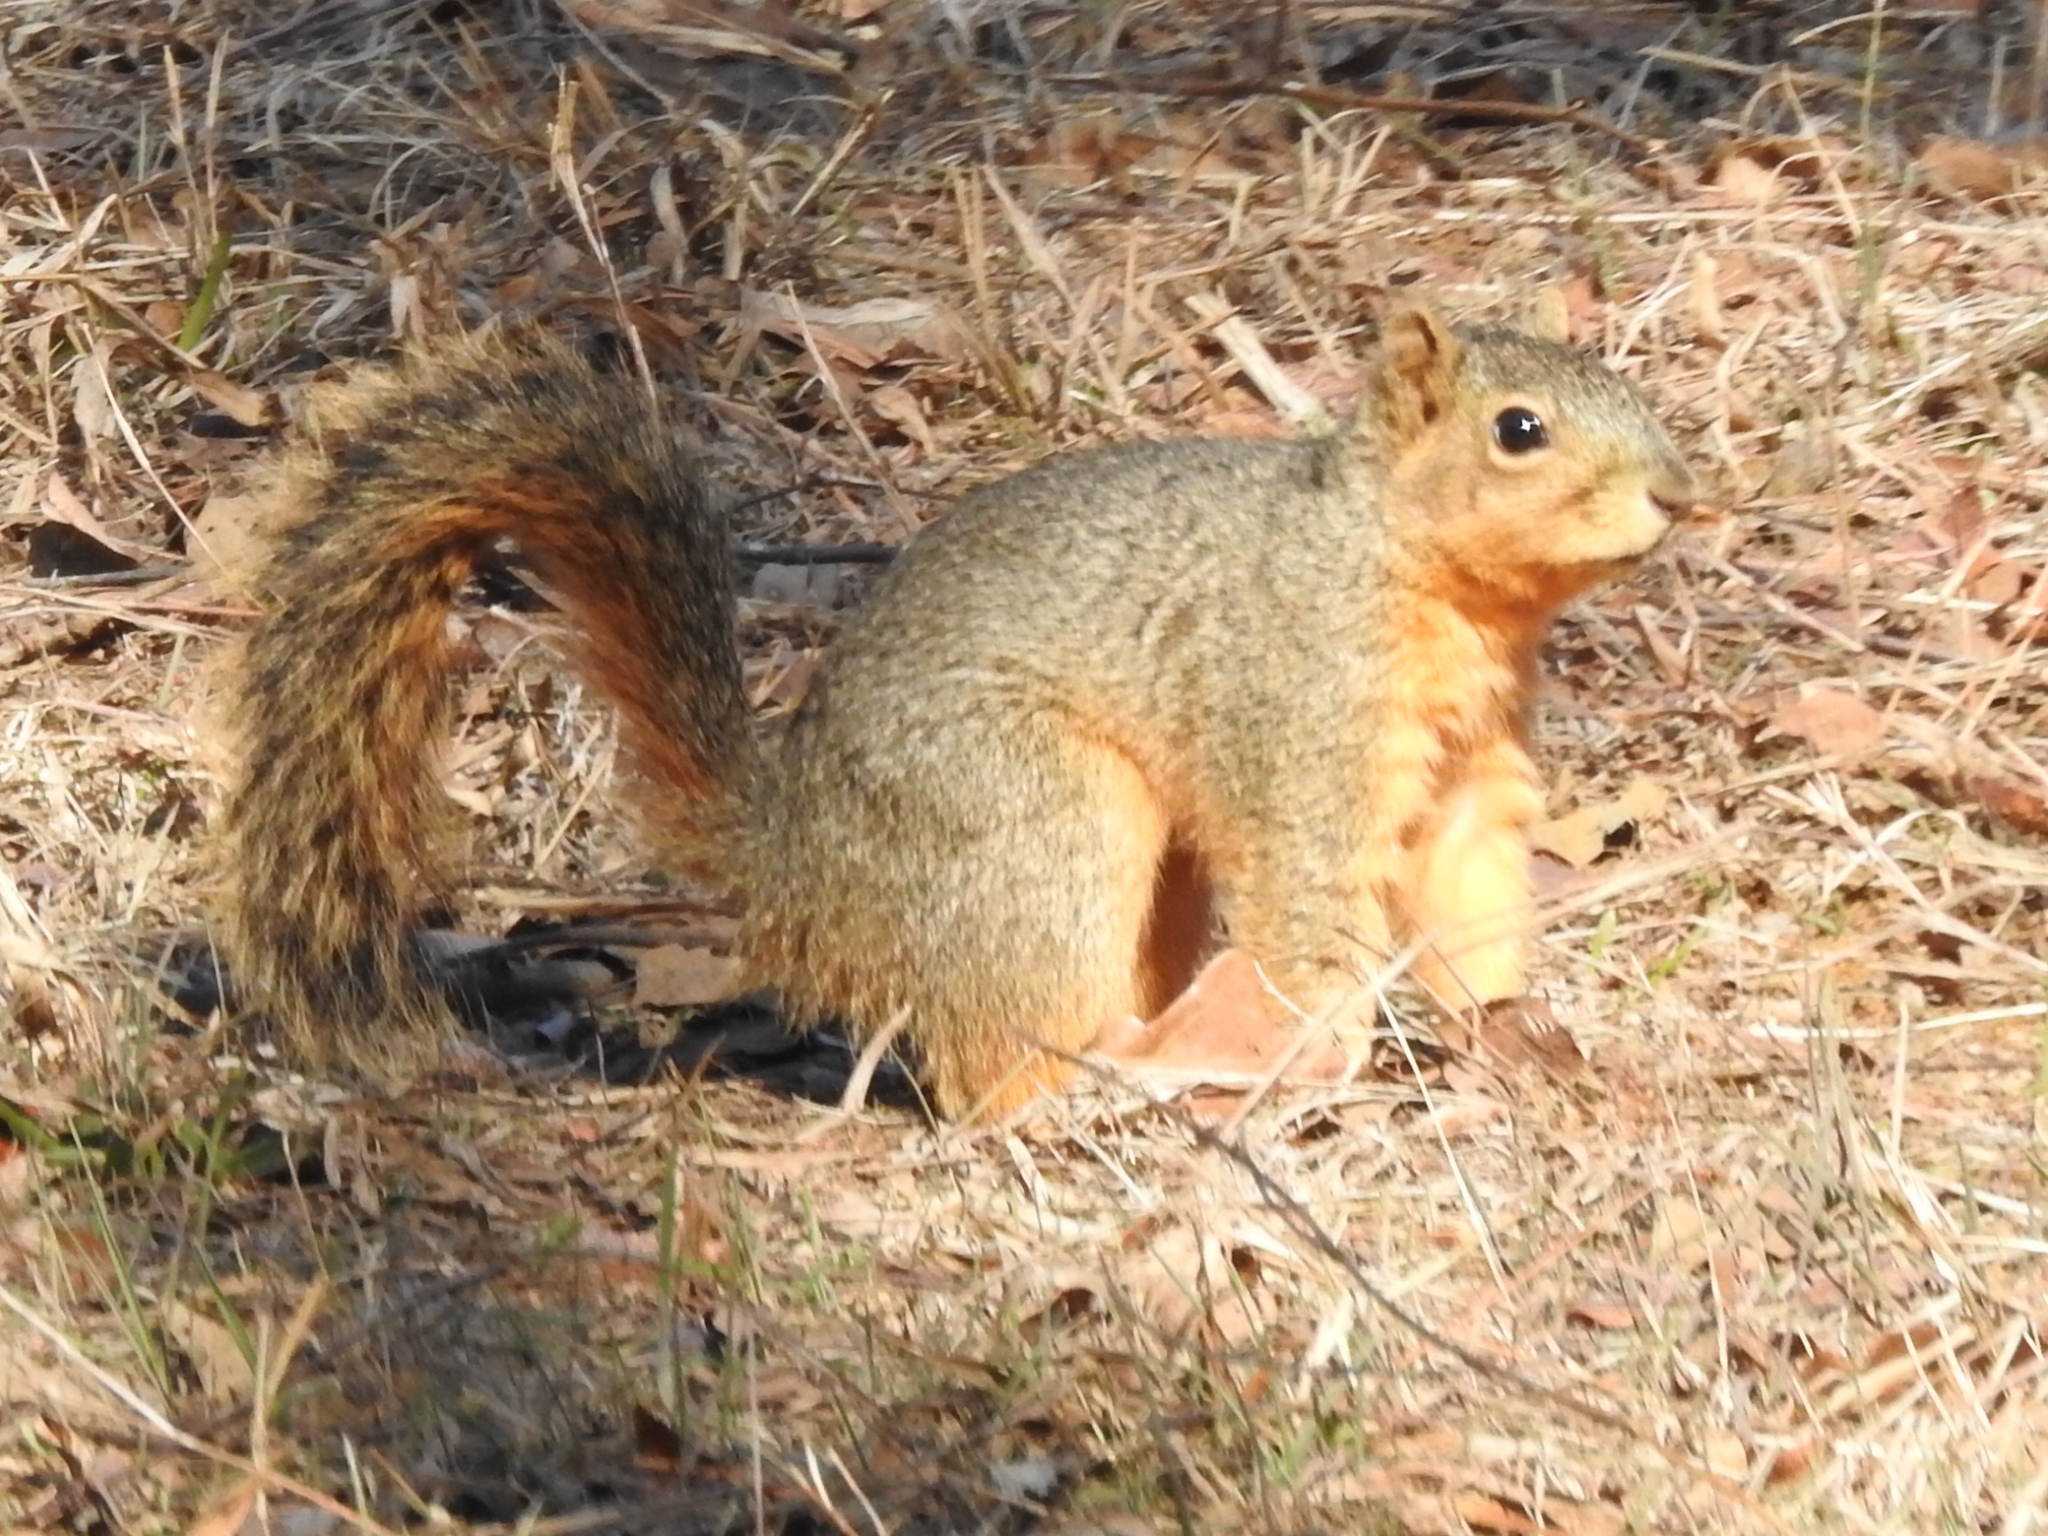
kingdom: Animalia
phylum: Chordata
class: Mammalia
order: Rodentia
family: Sciuridae
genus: Sciurus
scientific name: Sciurus niger
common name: Fox squirrel
